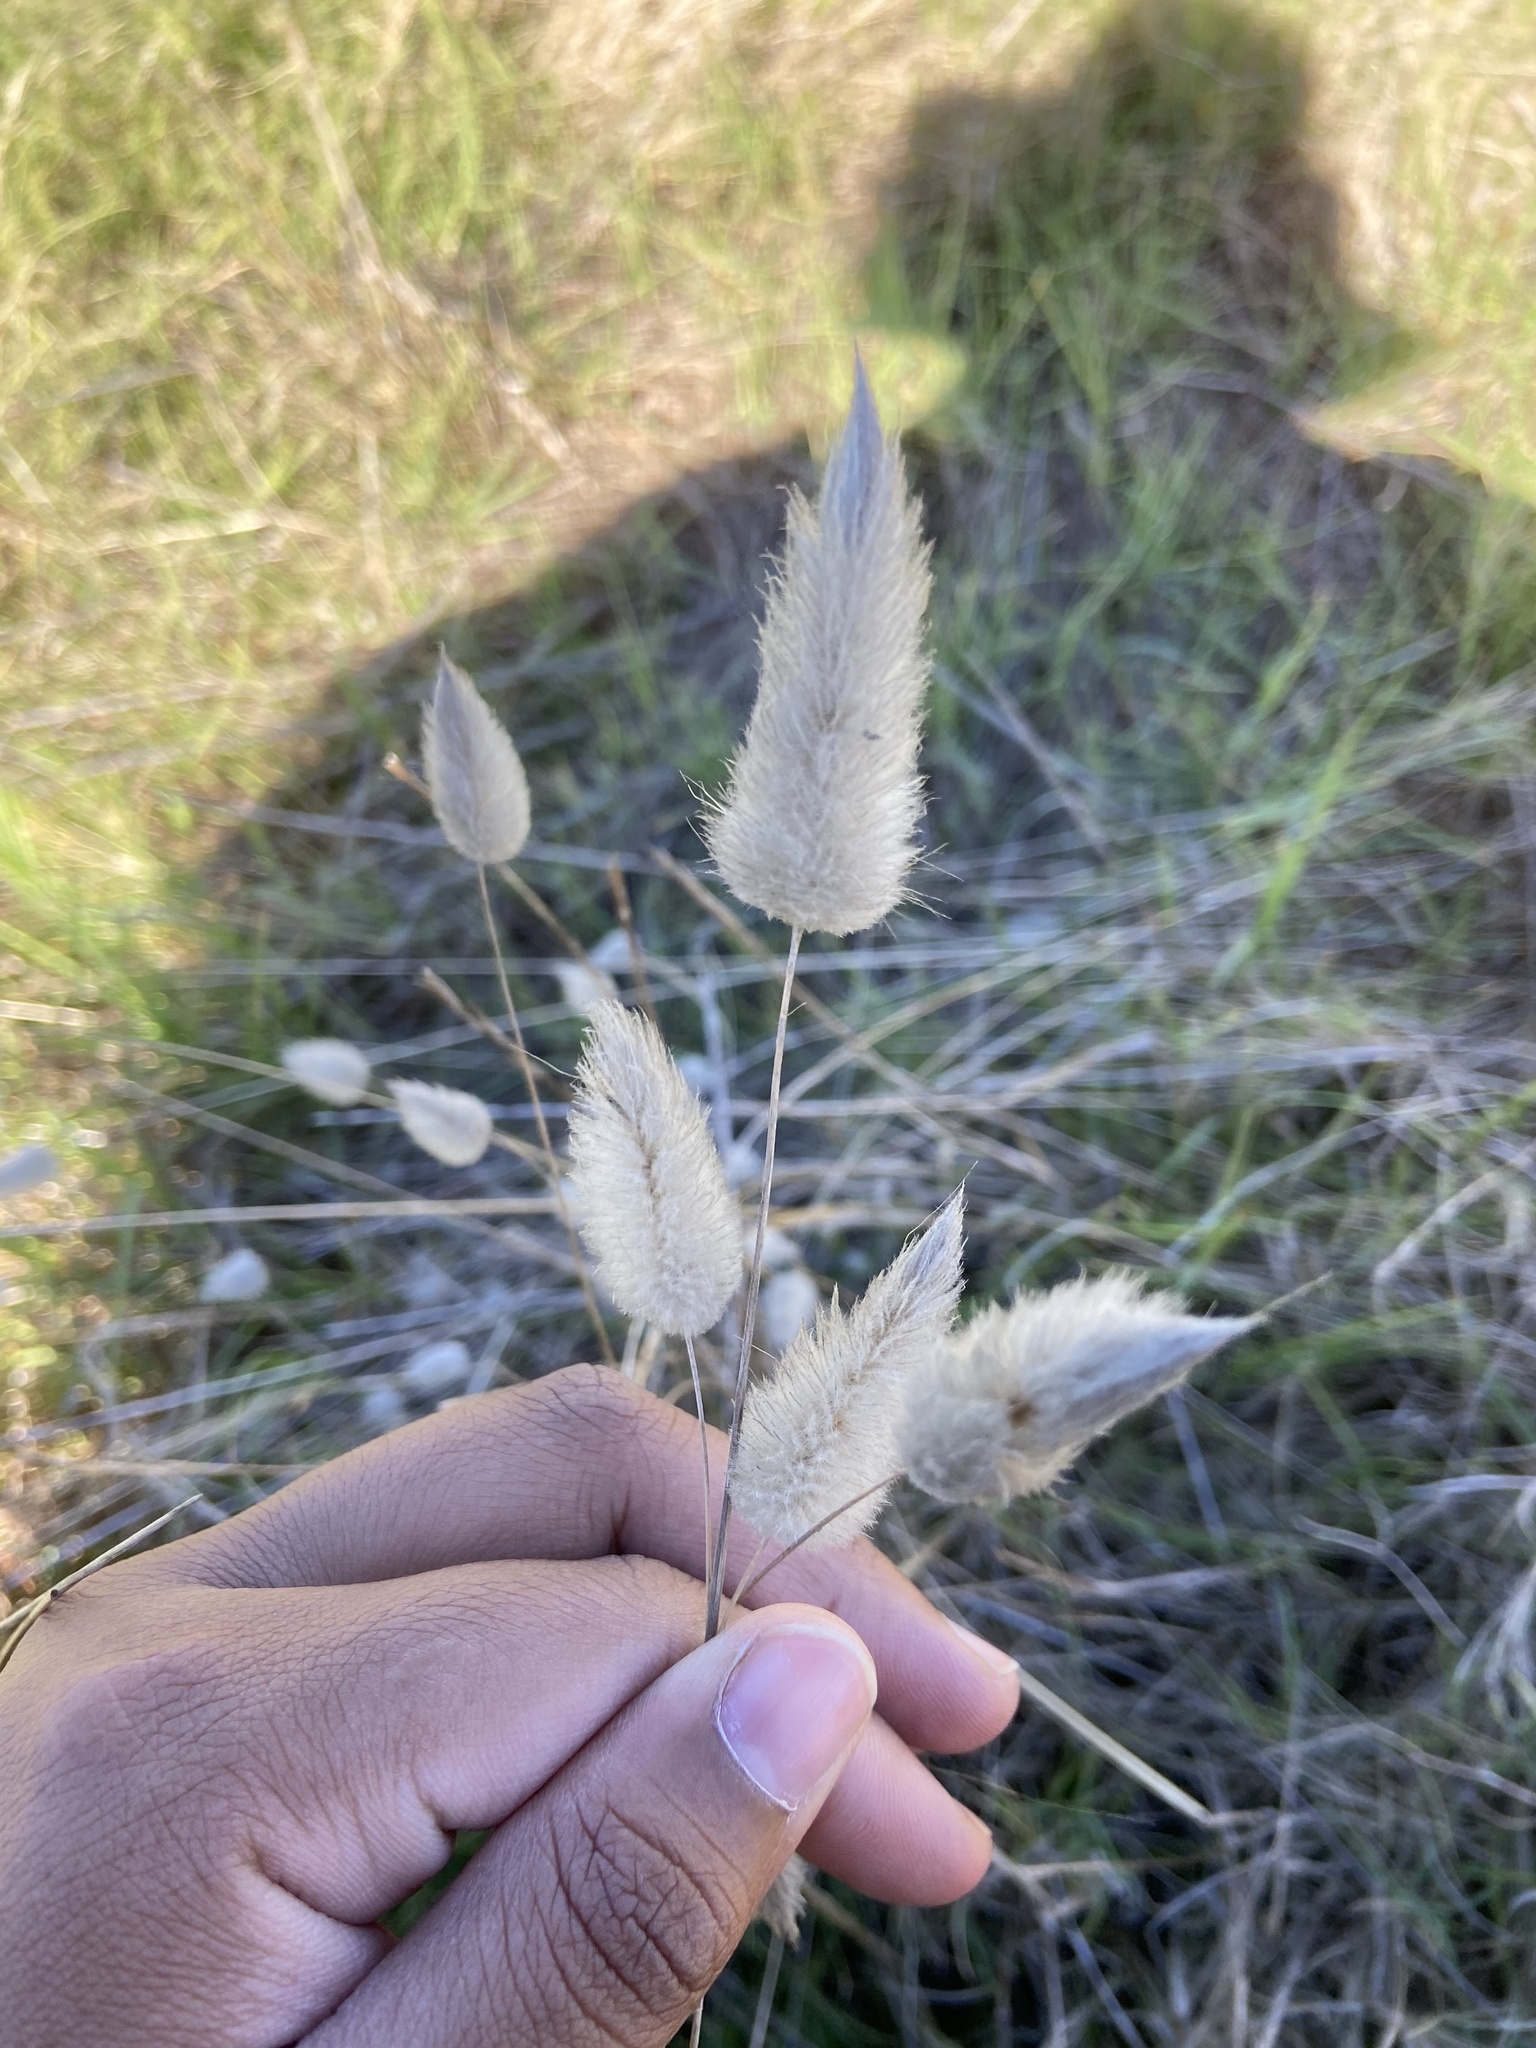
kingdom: Plantae
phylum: Tracheophyta
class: Liliopsida
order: Poales
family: Poaceae
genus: Lagurus
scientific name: Lagurus ovatus
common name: Hare's-tail
